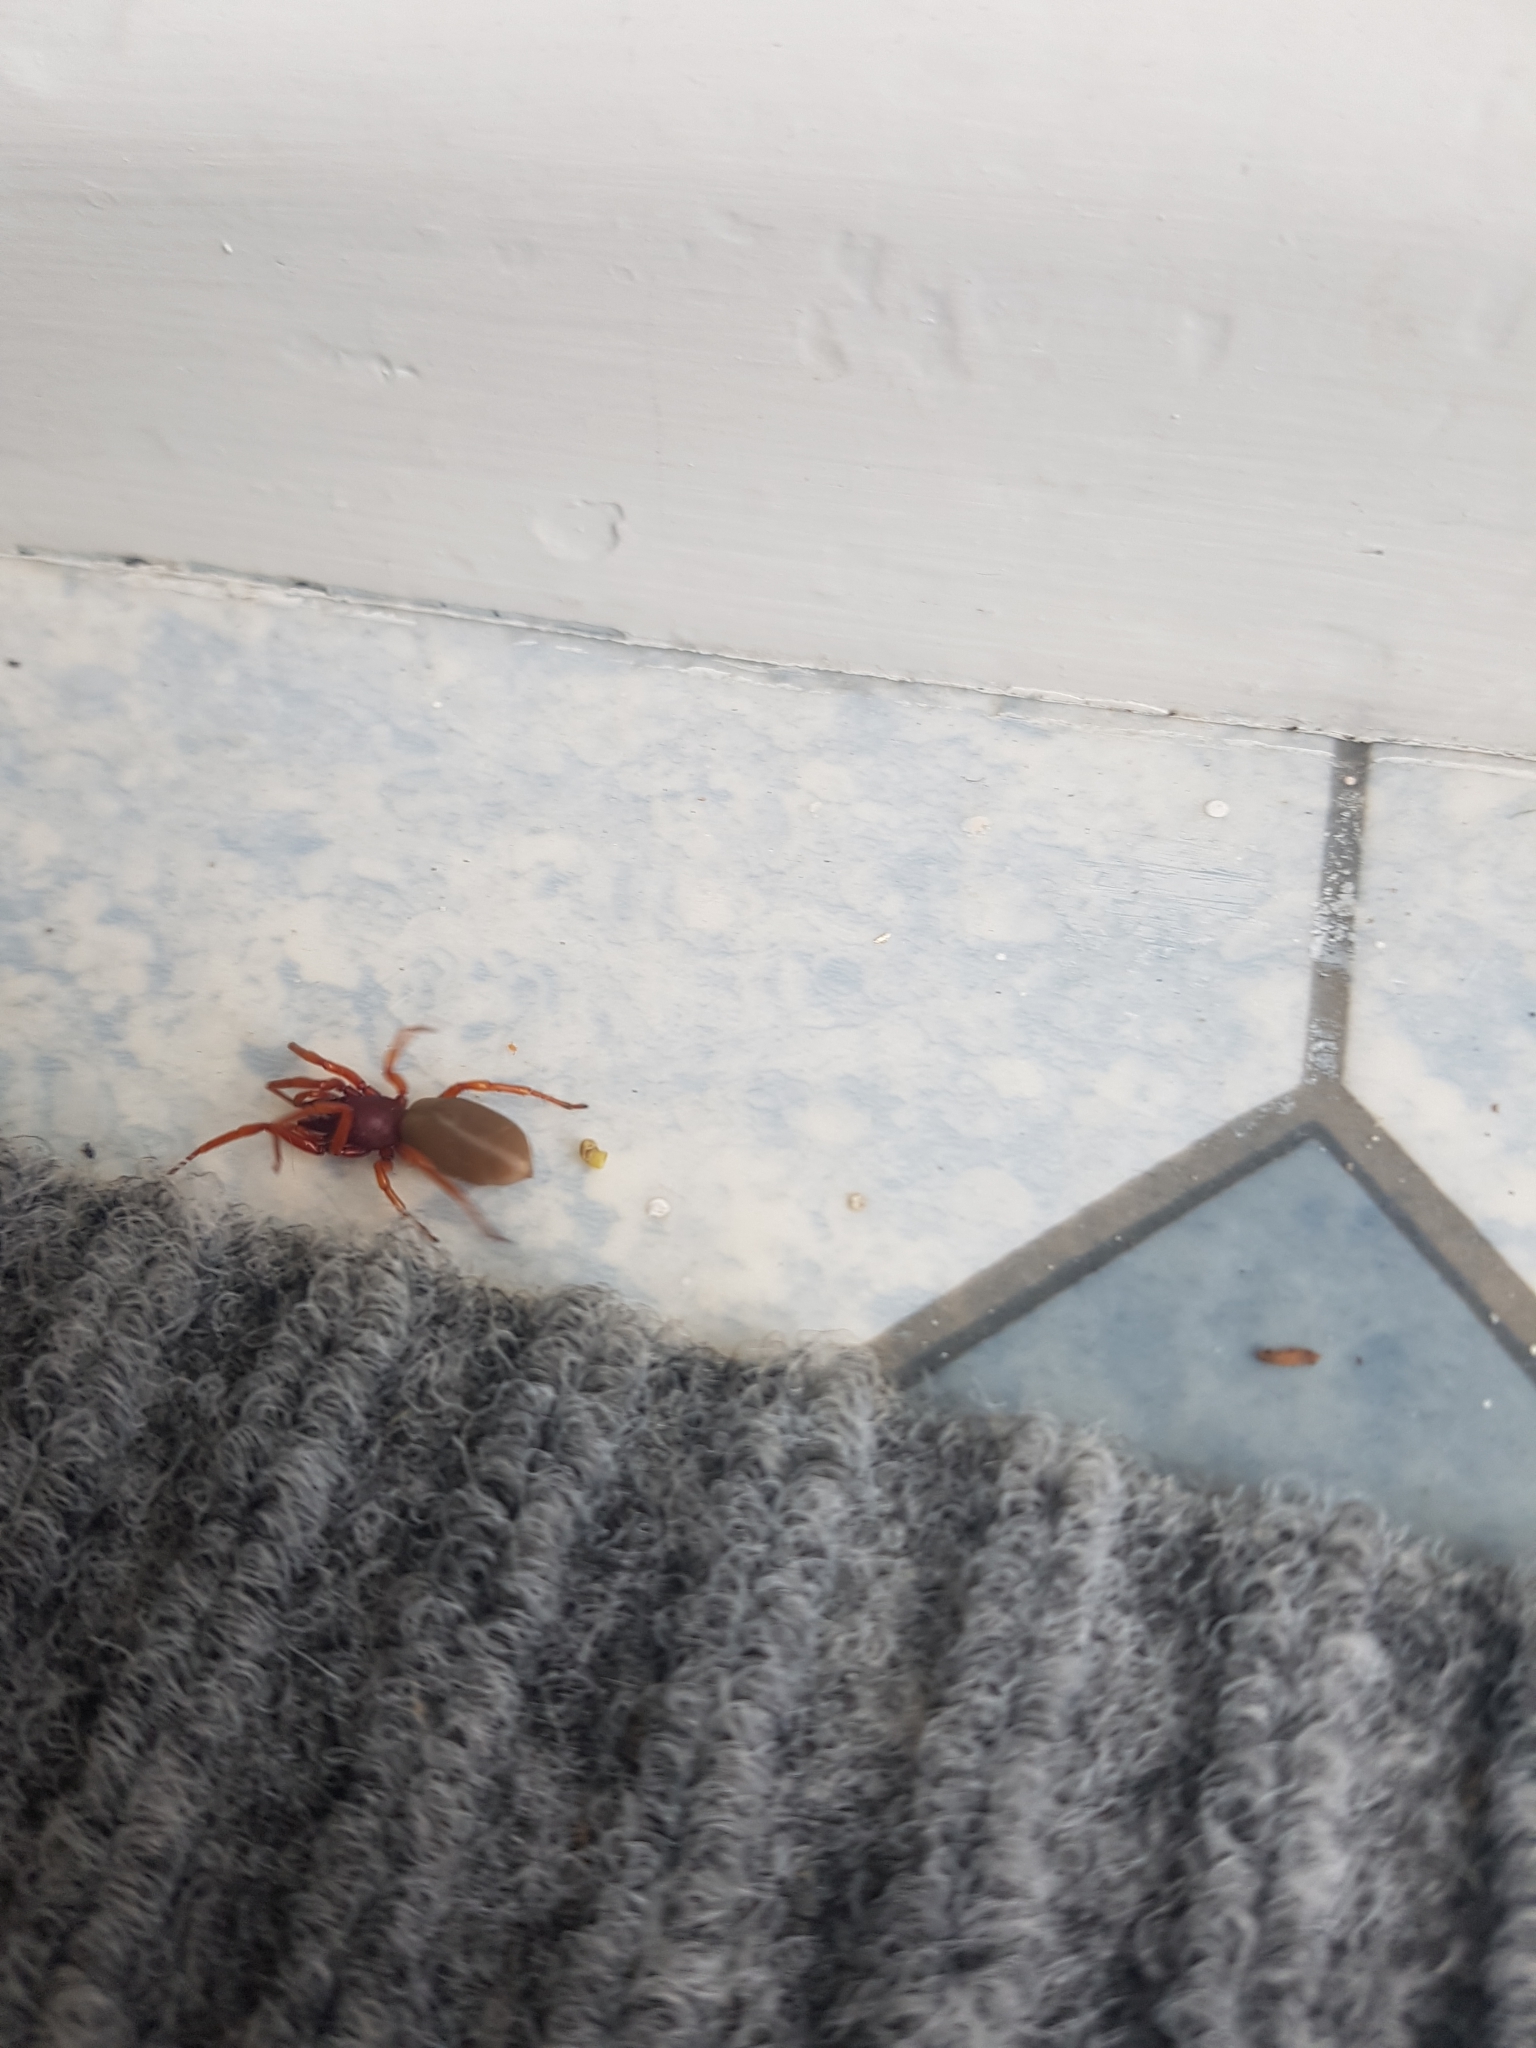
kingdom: Animalia
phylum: Arthropoda
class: Arachnida
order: Araneae
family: Dysderidae
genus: Dysdera
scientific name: Dysdera crocata
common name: Woodlouse spider
